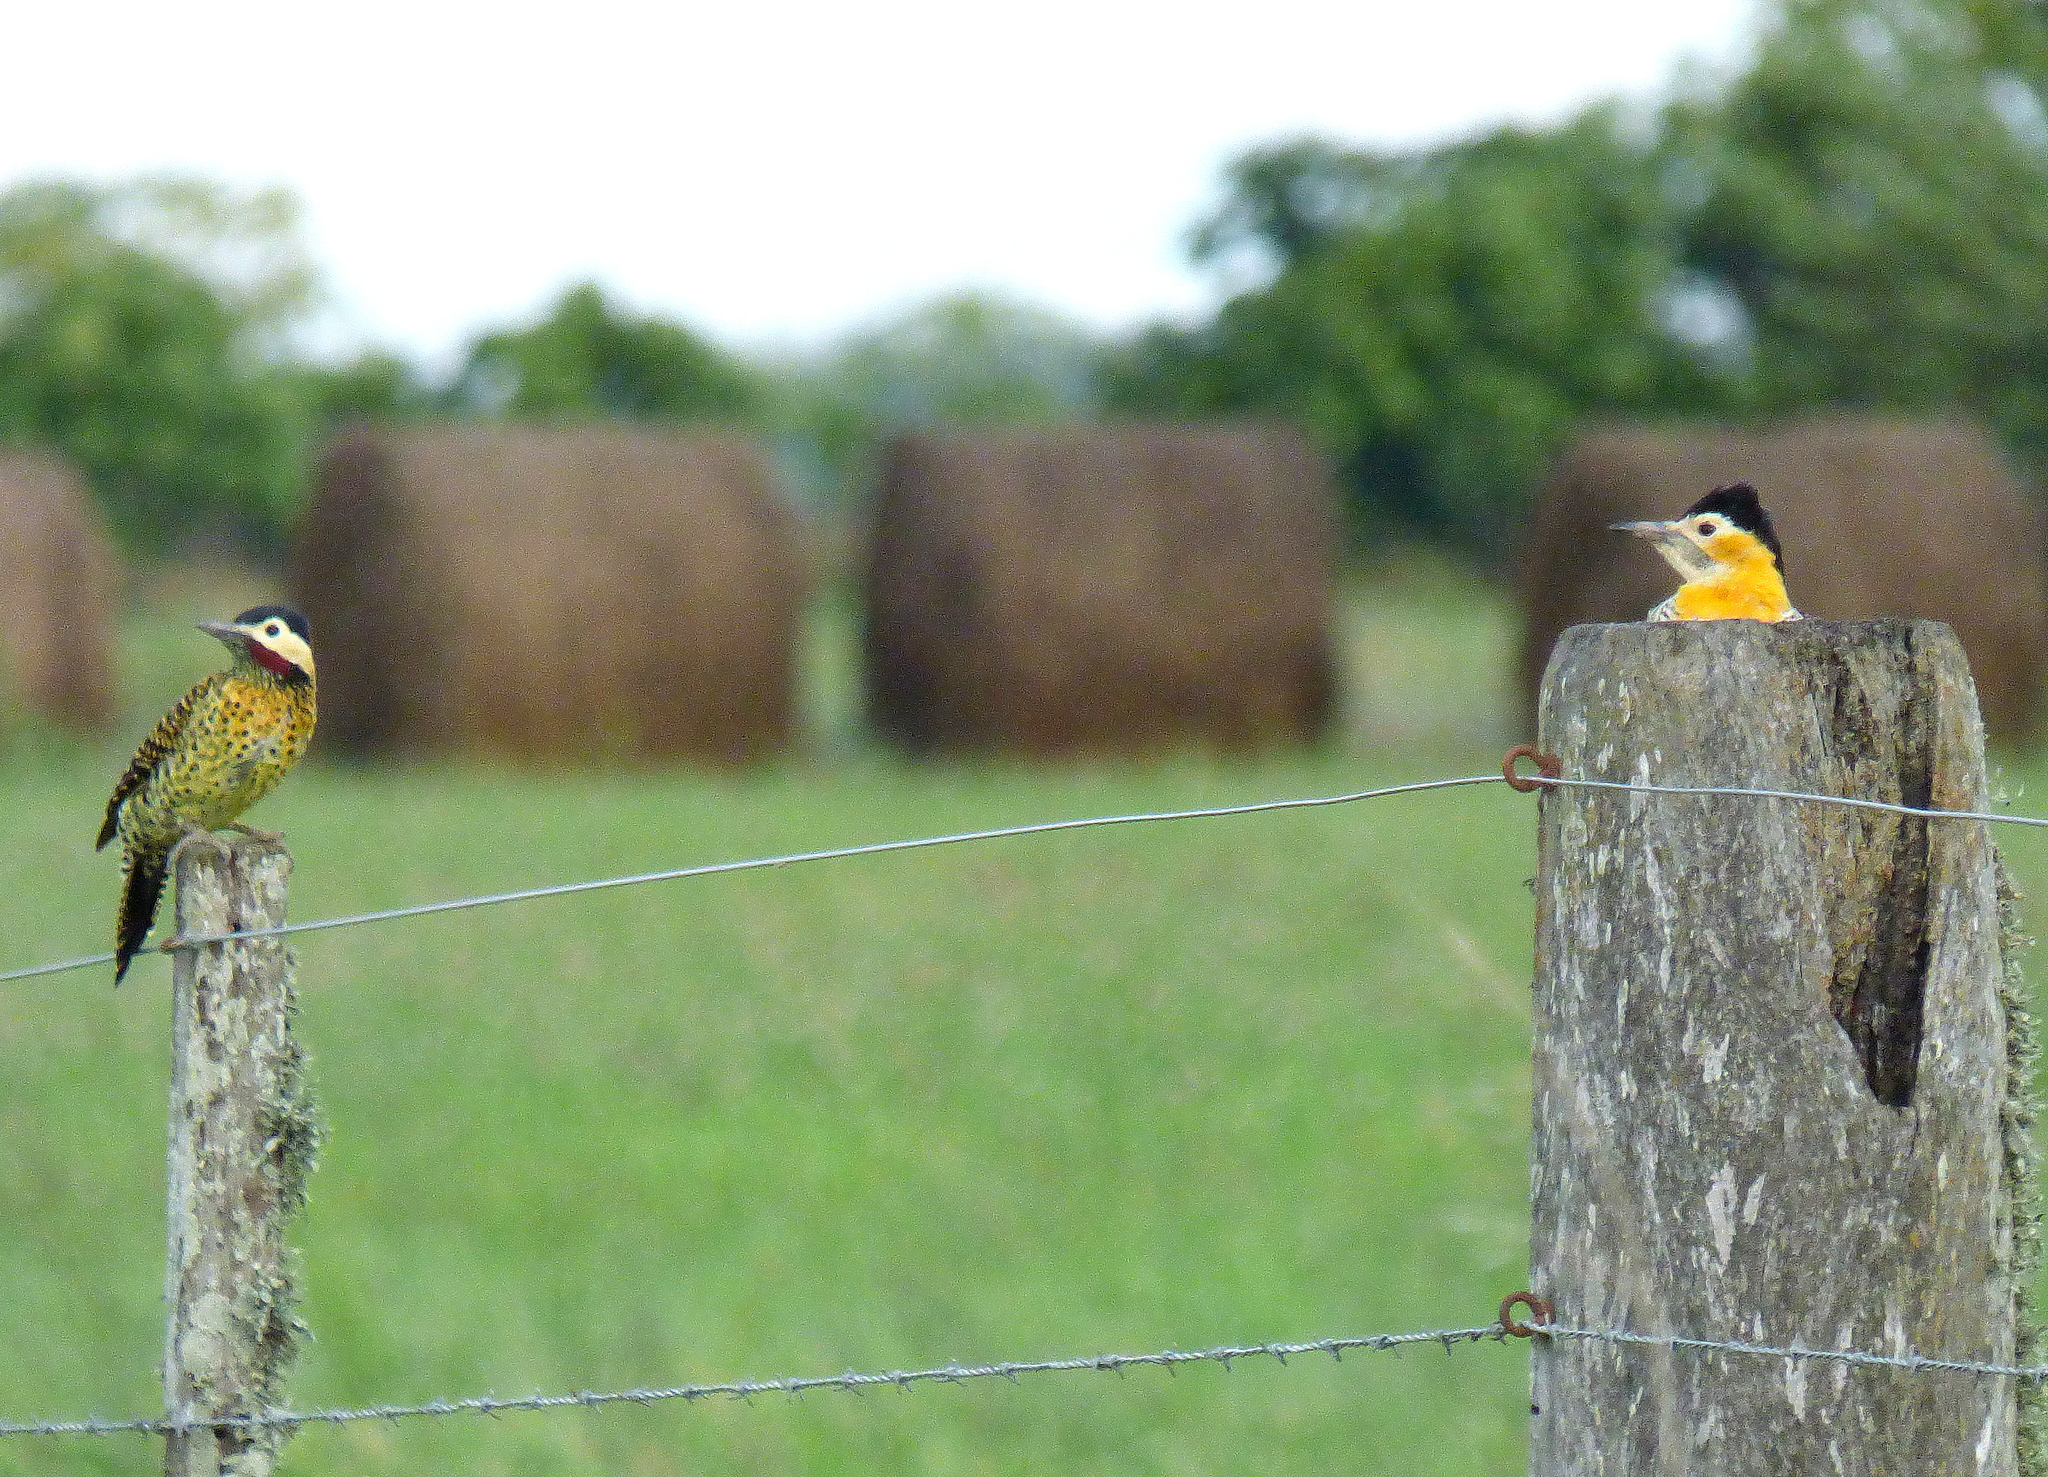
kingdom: Animalia
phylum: Chordata
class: Aves
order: Piciformes
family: Picidae
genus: Colaptes
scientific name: Colaptes melanochloros
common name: Green-barred woodpecker
